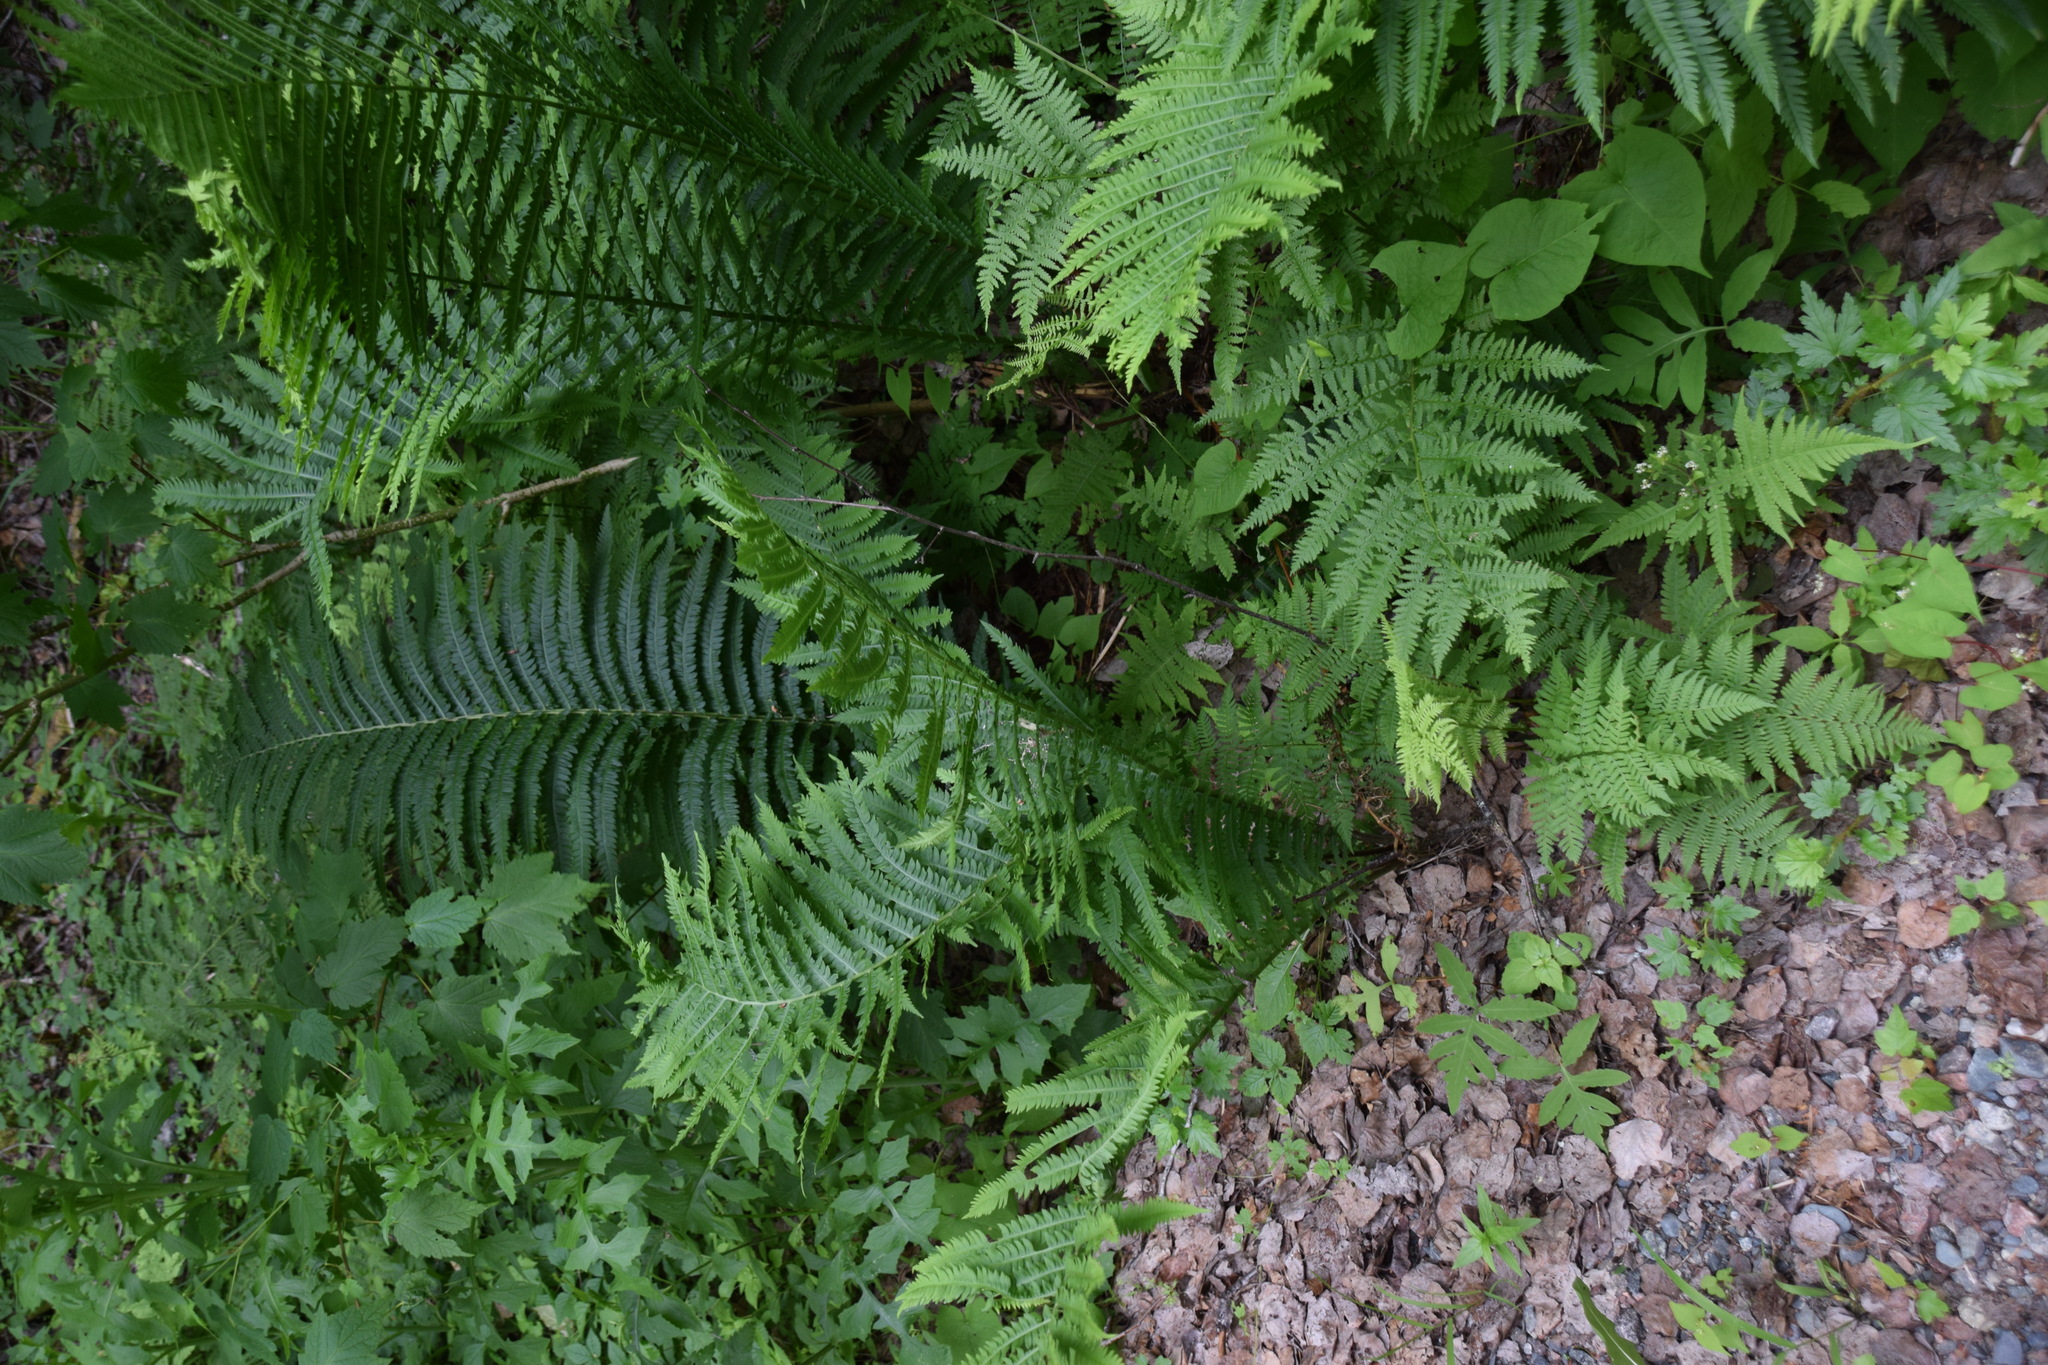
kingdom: Plantae
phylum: Tracheophyta
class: Polypodiopsida
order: Polypodiales
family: Onocleaceae
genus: Matteuccia
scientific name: Matteuccia struthiopteris
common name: Ostrich fern
